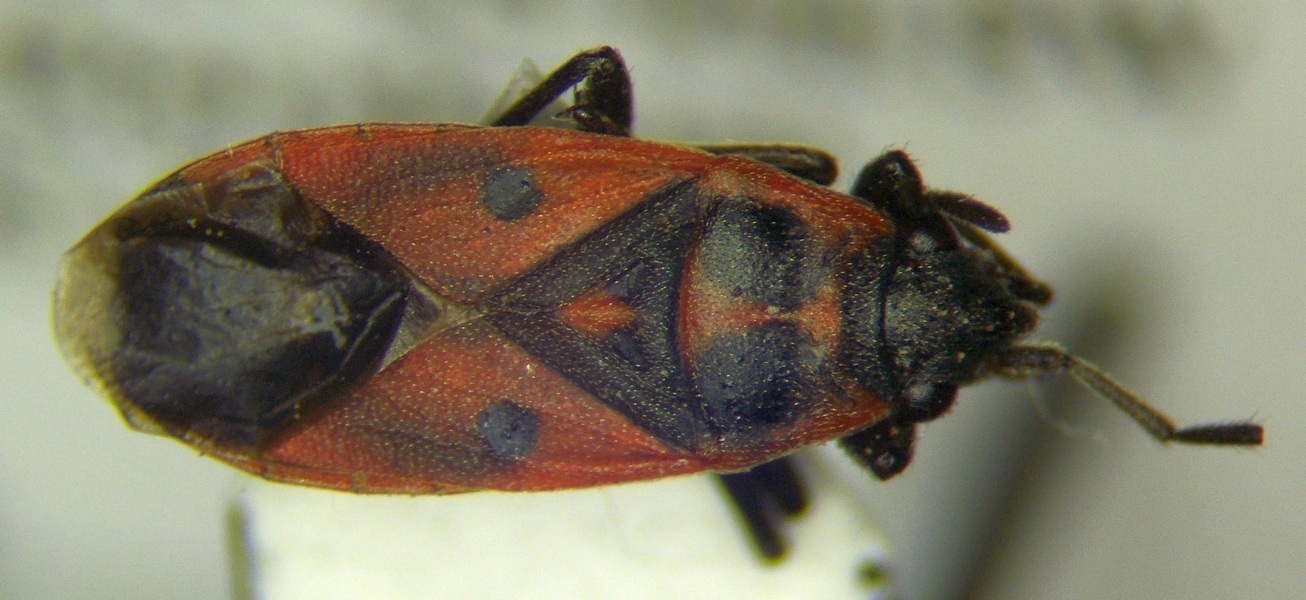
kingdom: Animalia
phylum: Arthropoda
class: Insecta
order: Hemiptera
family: Lygaeidae
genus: Melanocoryphus
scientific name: Melanocoryphus tristrami
